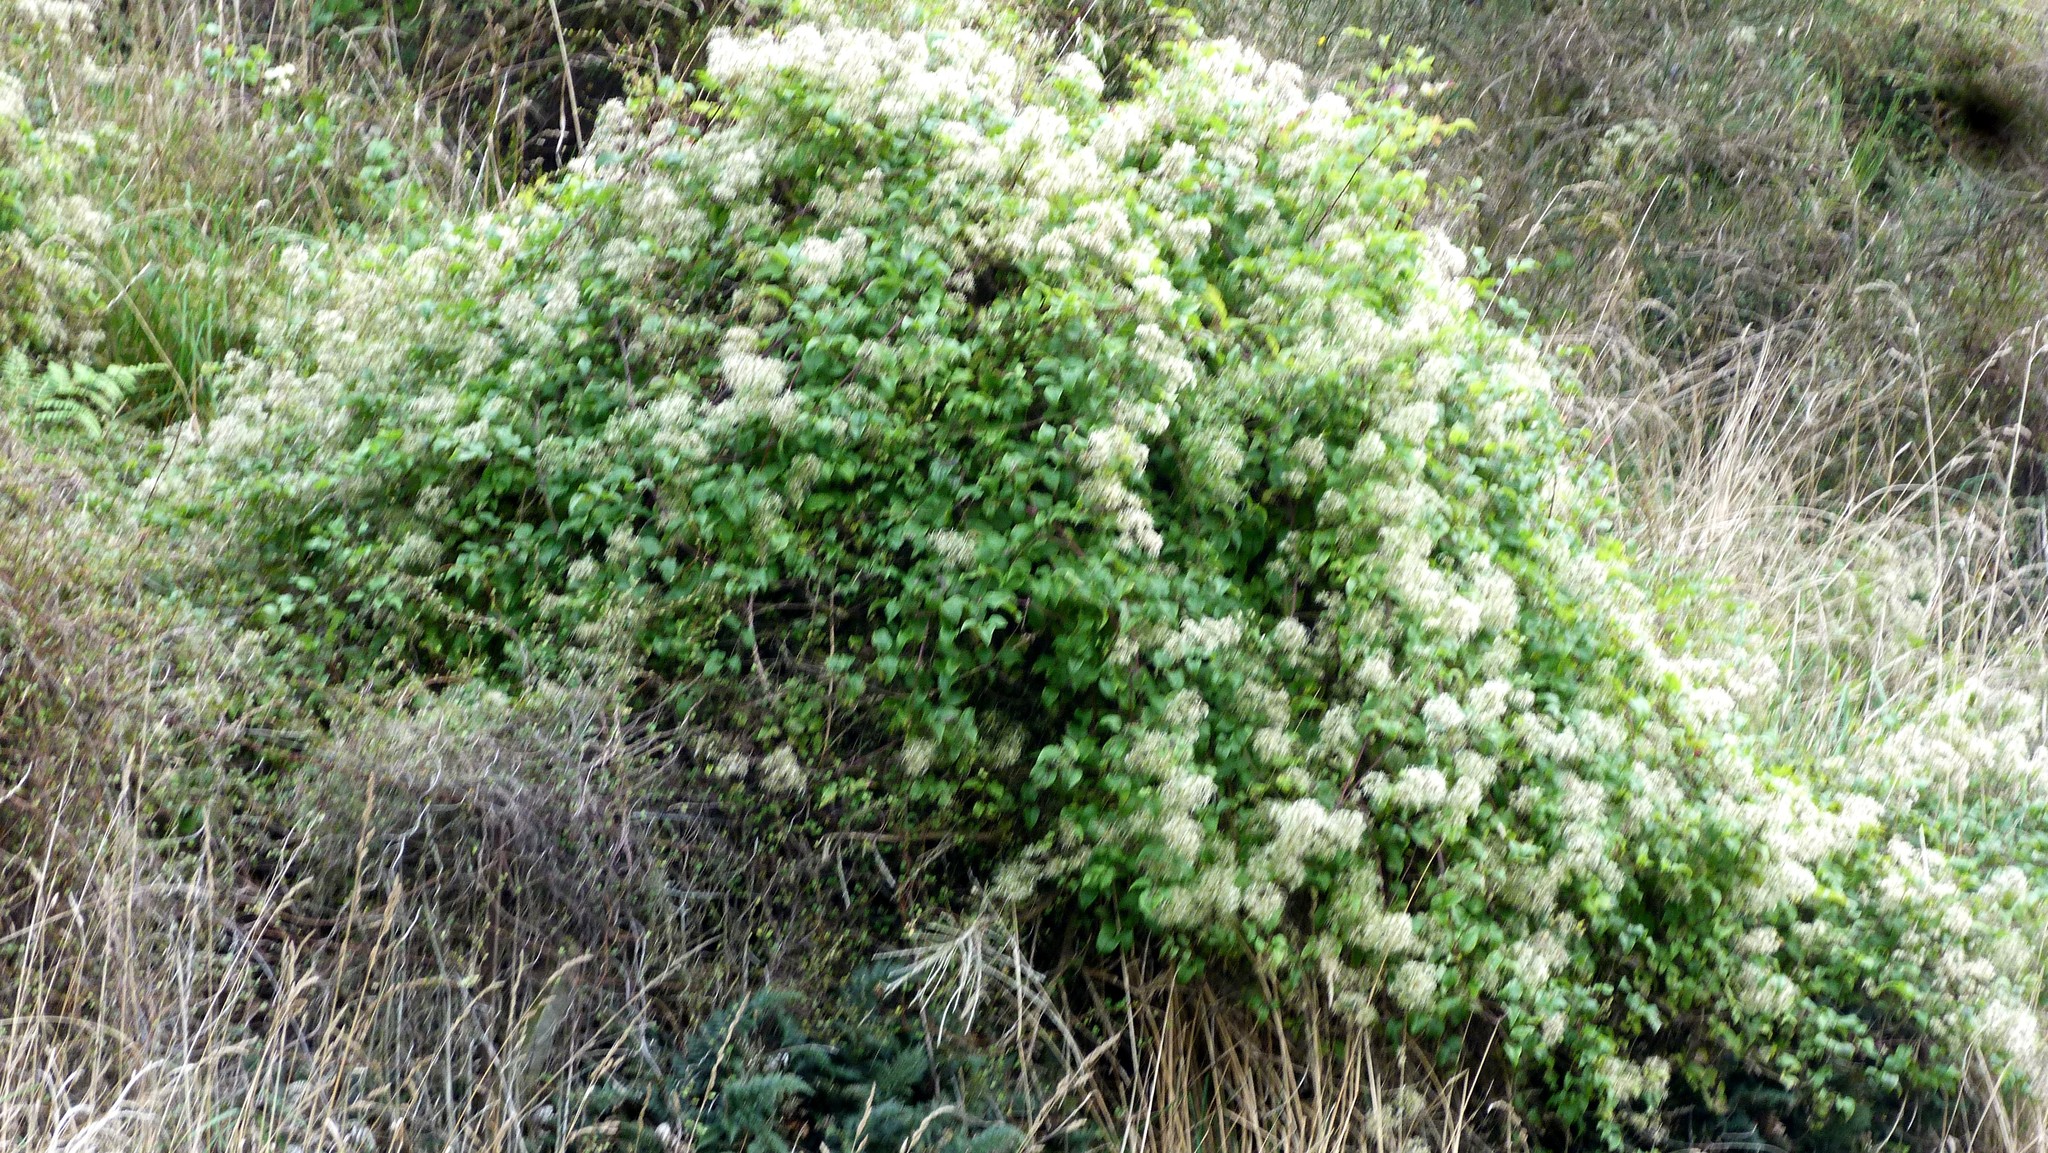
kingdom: Plantae
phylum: Tracheophyta
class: Magnoliopsida
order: Ranunculales
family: Ranunculaceae
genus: Clematis
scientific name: Clematis vitalba
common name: Evergreen clematis
